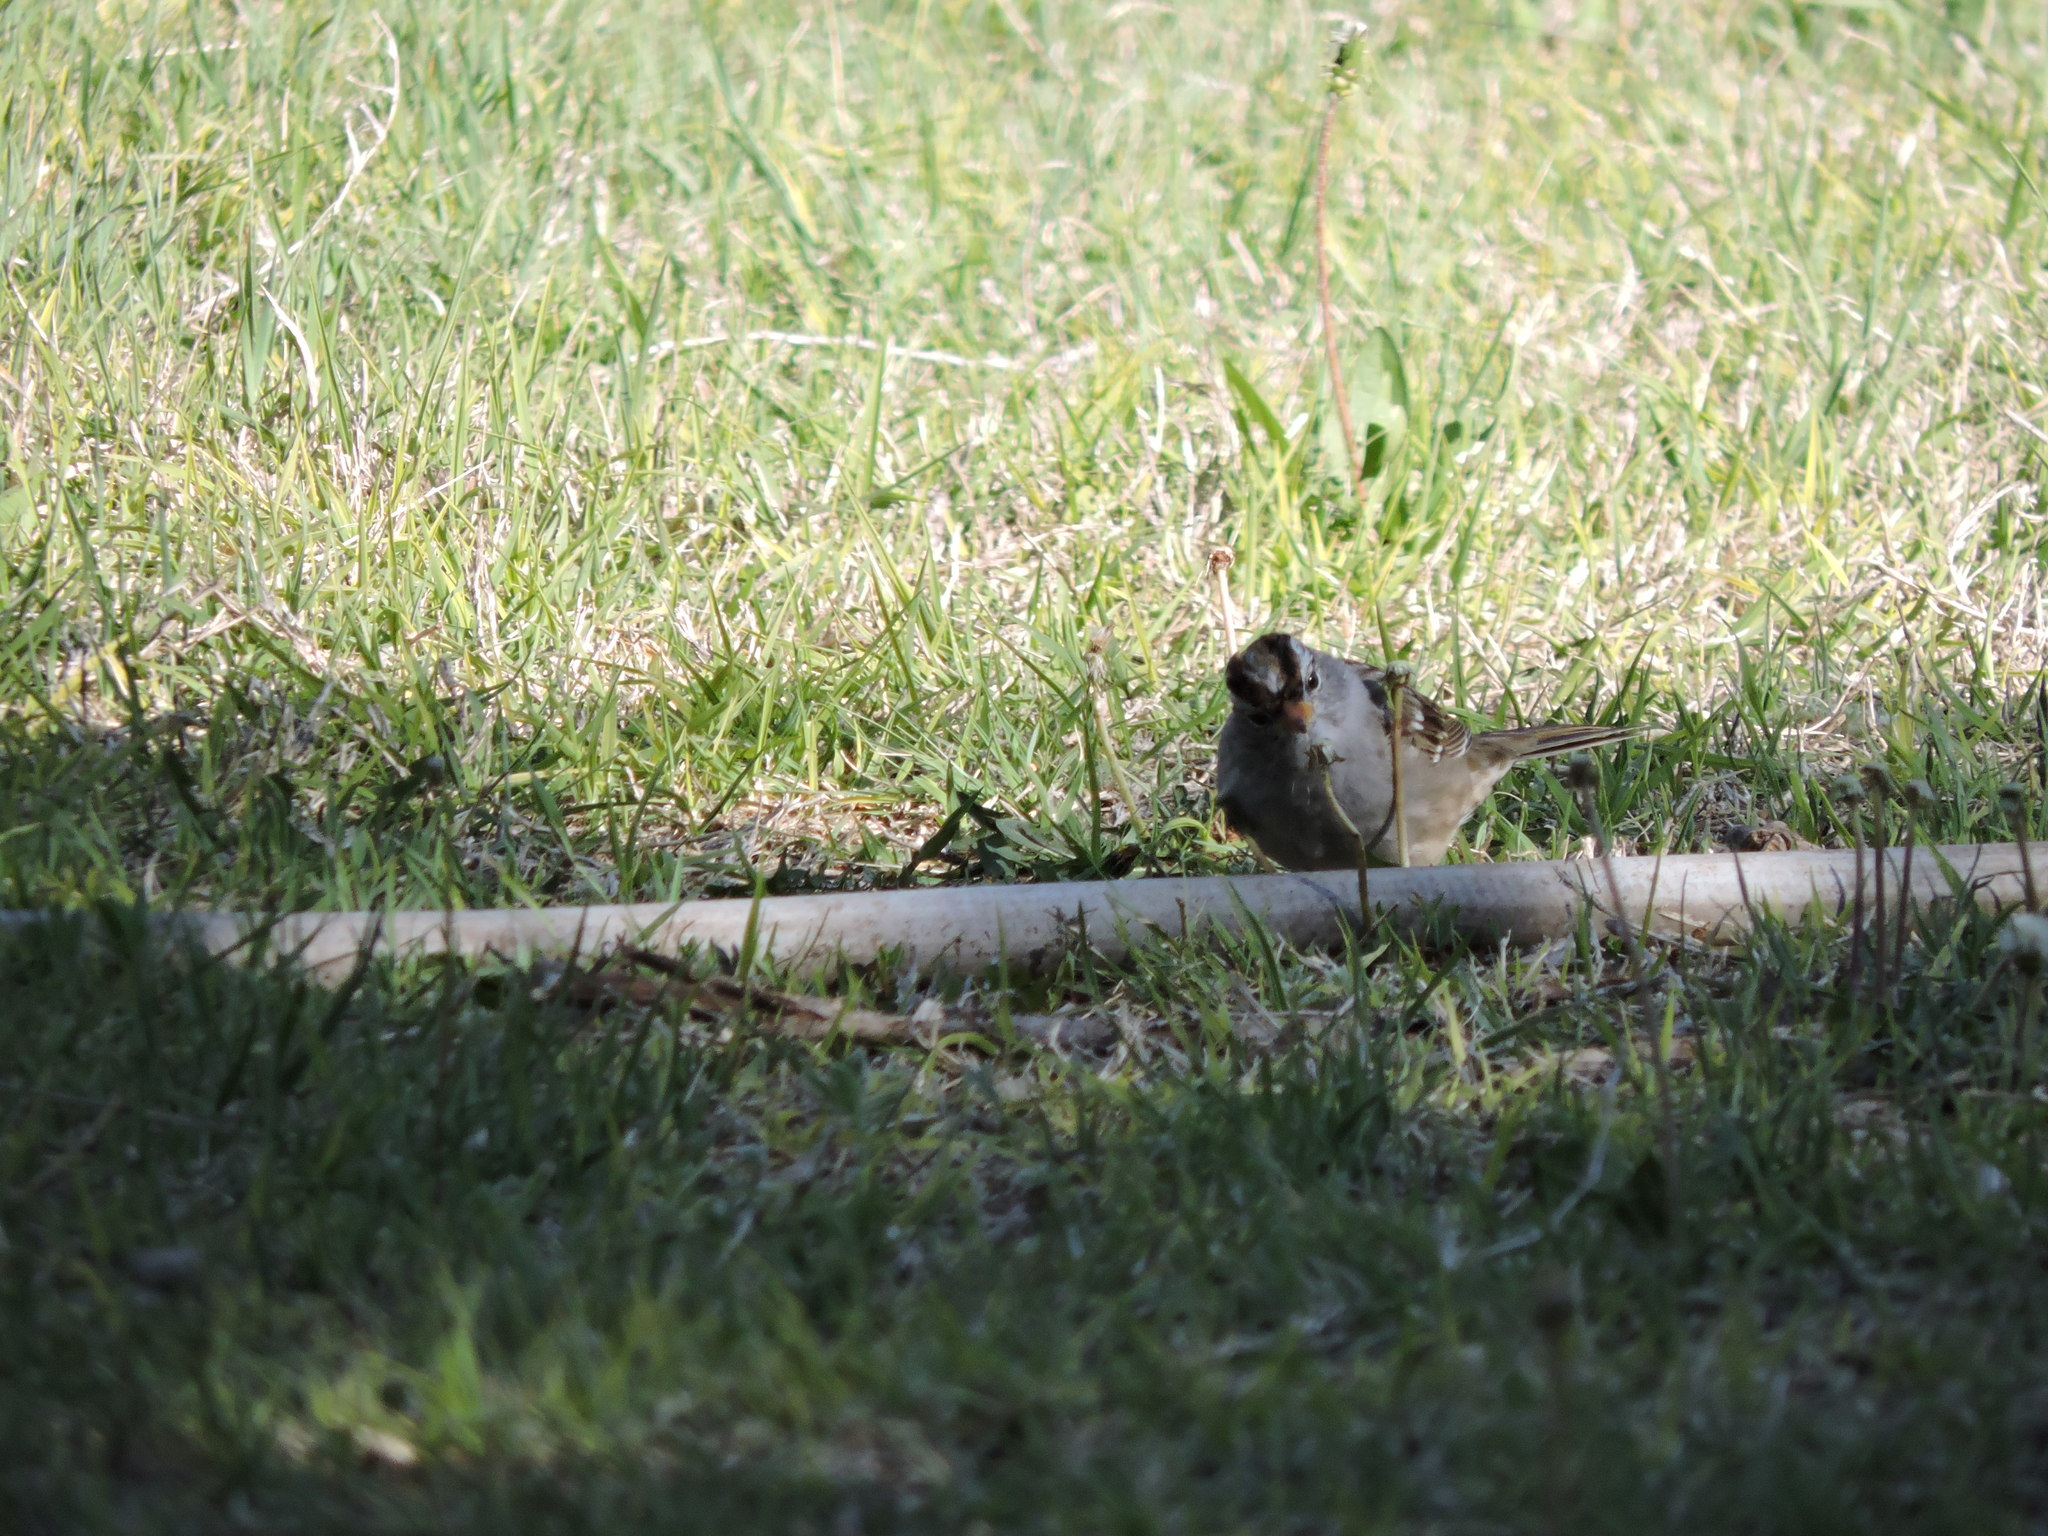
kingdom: Animalia
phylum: Chordata
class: Aves
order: Passeriformes
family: Passerellidae
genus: Zonotrichia
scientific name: Zonotrichia leucophrys
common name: White-crowned sparrow
